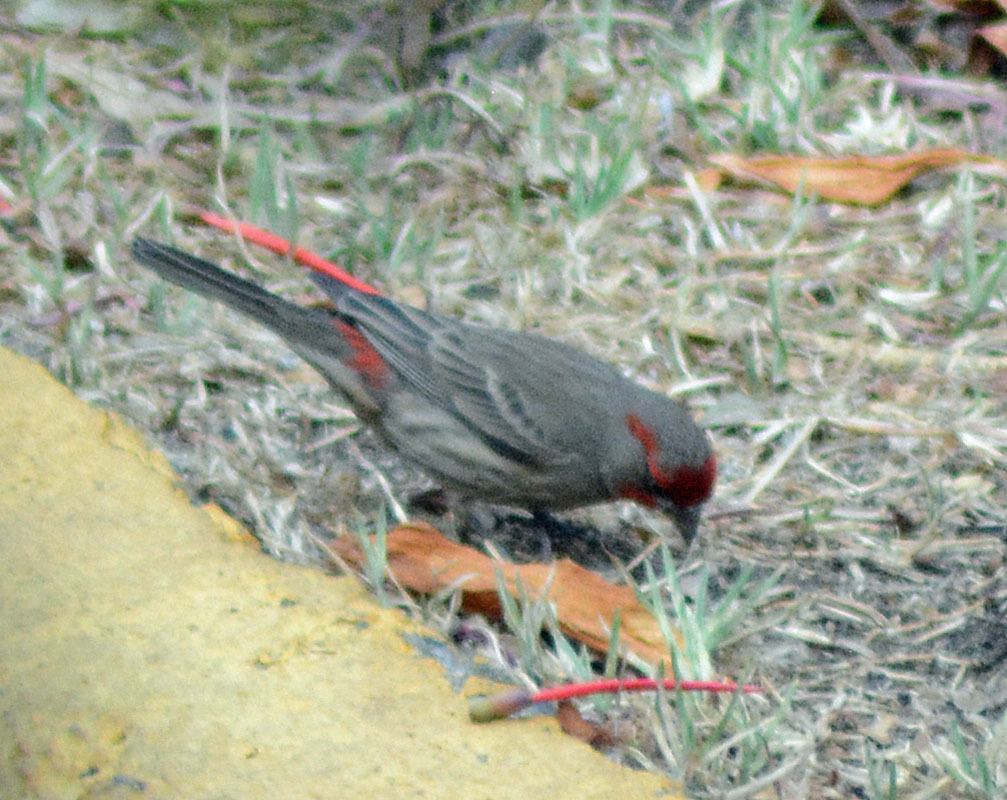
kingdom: Animalia
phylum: Chordata
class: Aves
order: Passeriformes
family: Fringillidae
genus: Haemorhous
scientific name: Haemorhous mexicanus
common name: House finch
